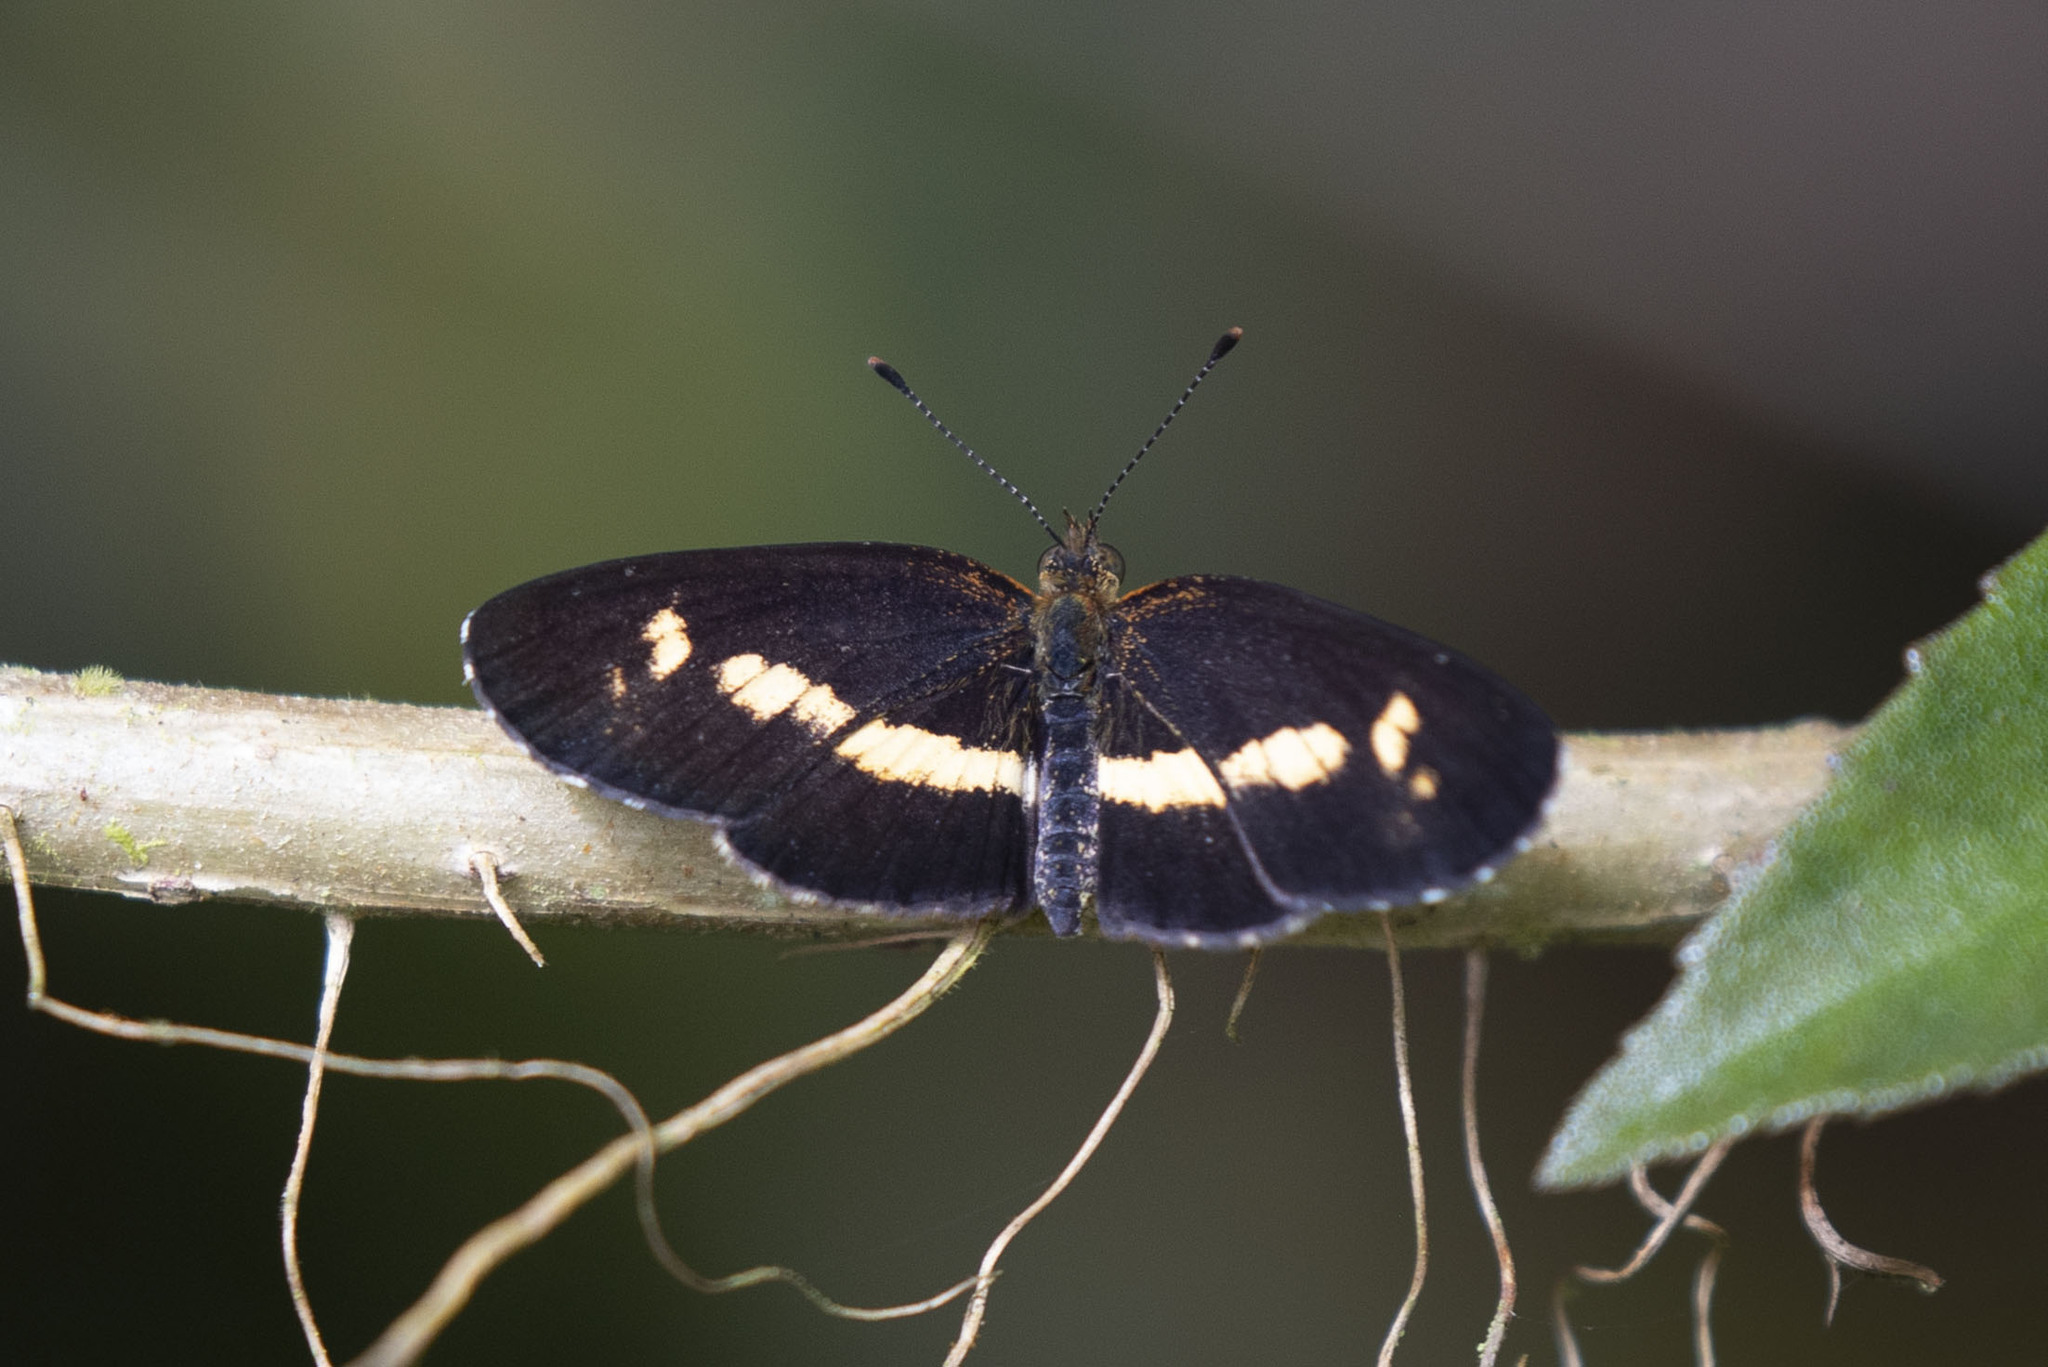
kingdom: Animalia
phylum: Arthropoda
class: Insecta
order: Lepidoptera
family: Nymphalidae
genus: Phystis
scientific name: Phystis
